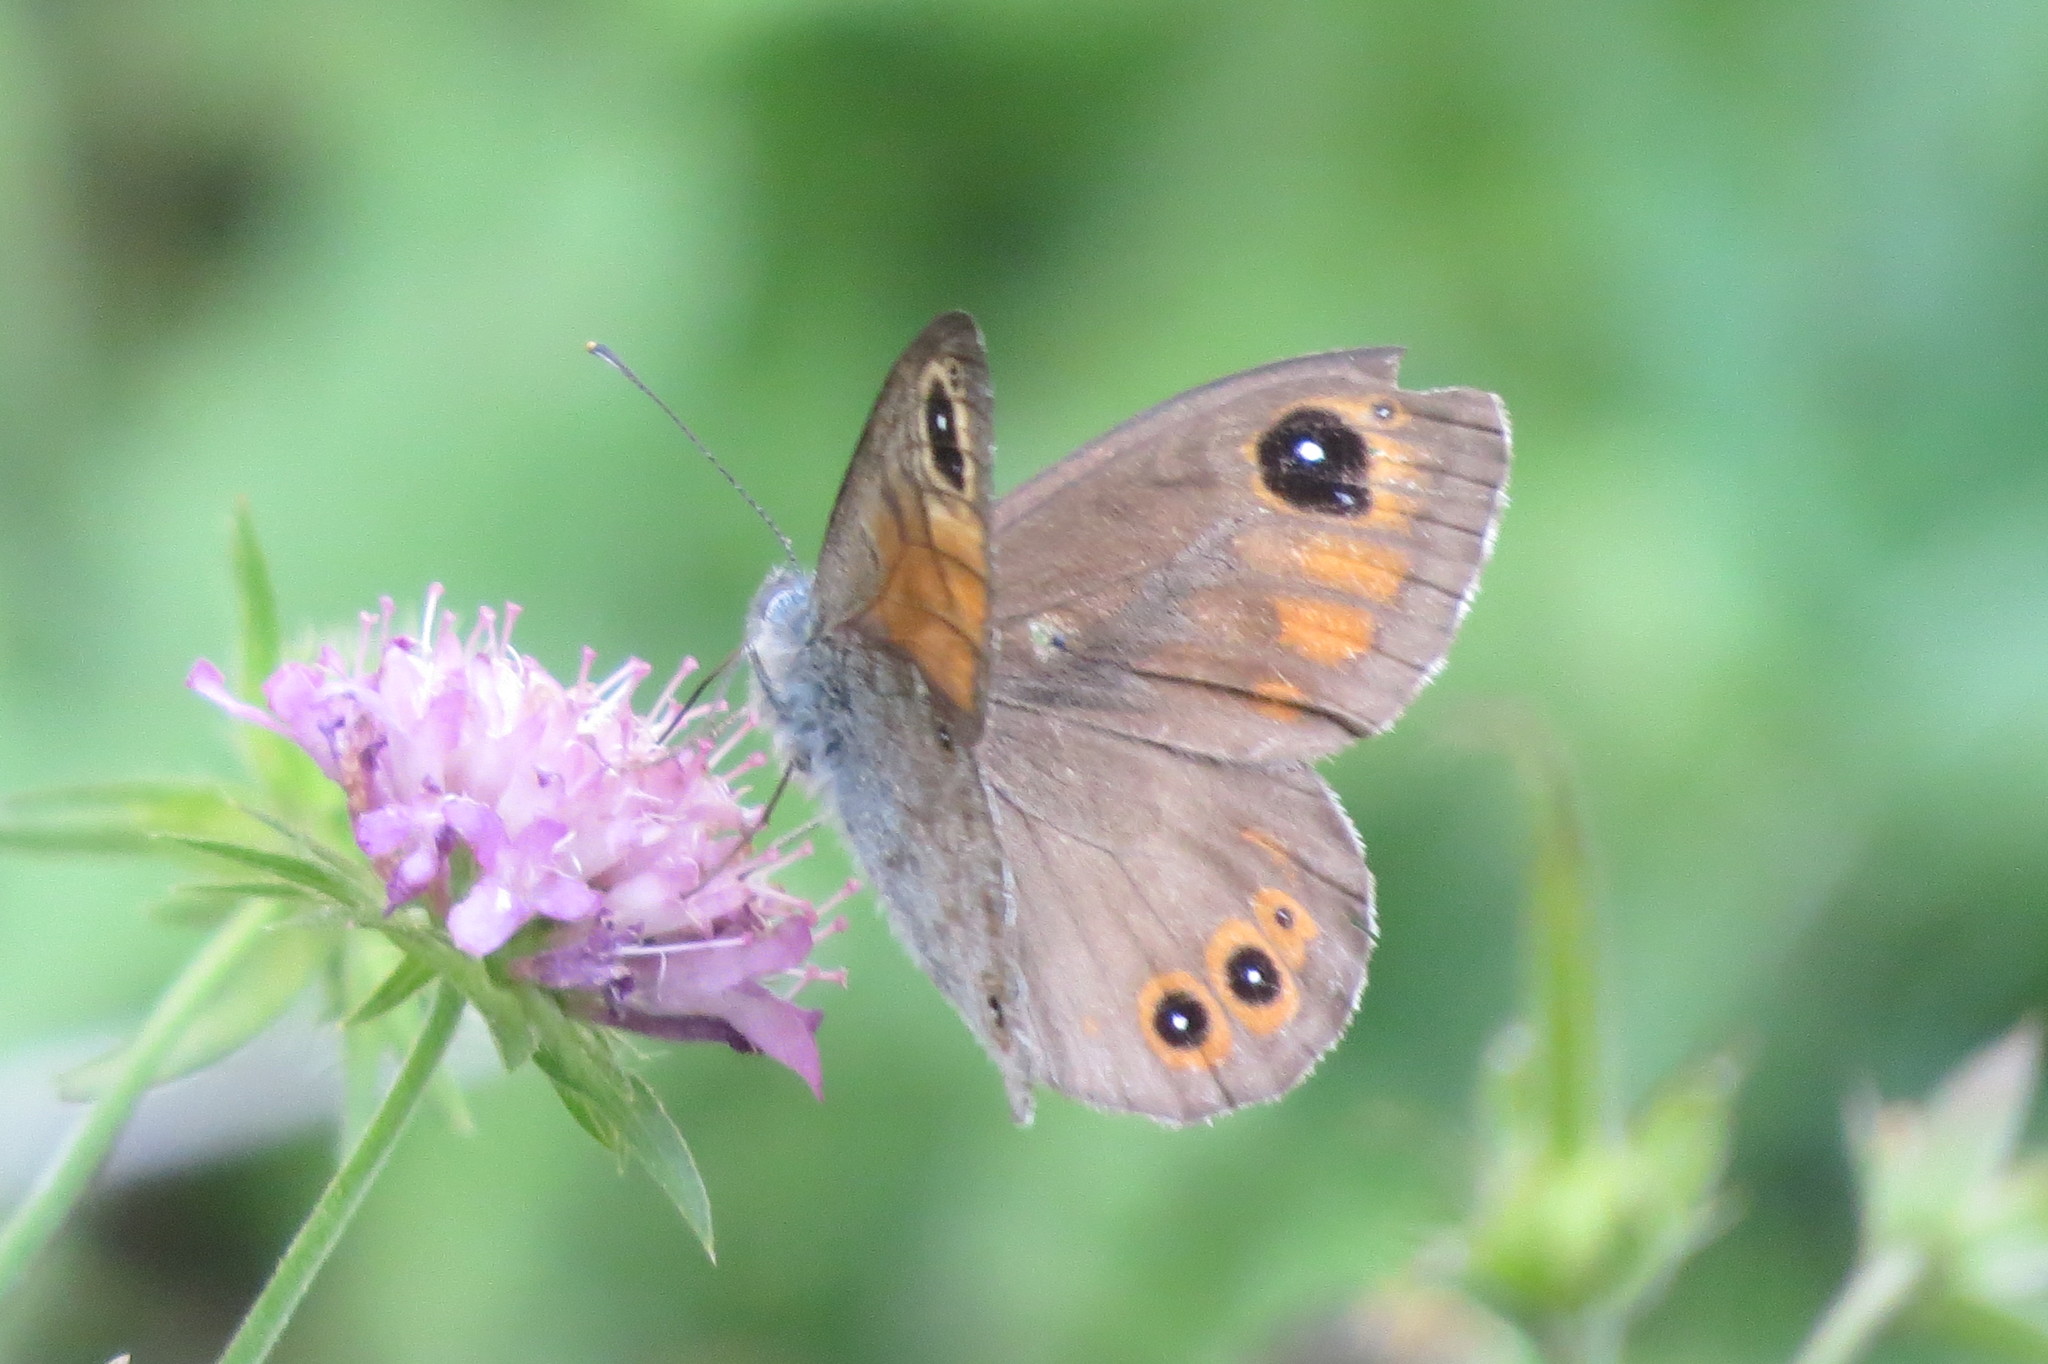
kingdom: Animalia
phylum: Arthropoda
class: Insecta
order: Lepidoptera
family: Nymphalidae
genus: Pararge
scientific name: Pararge Lasiommata maera
